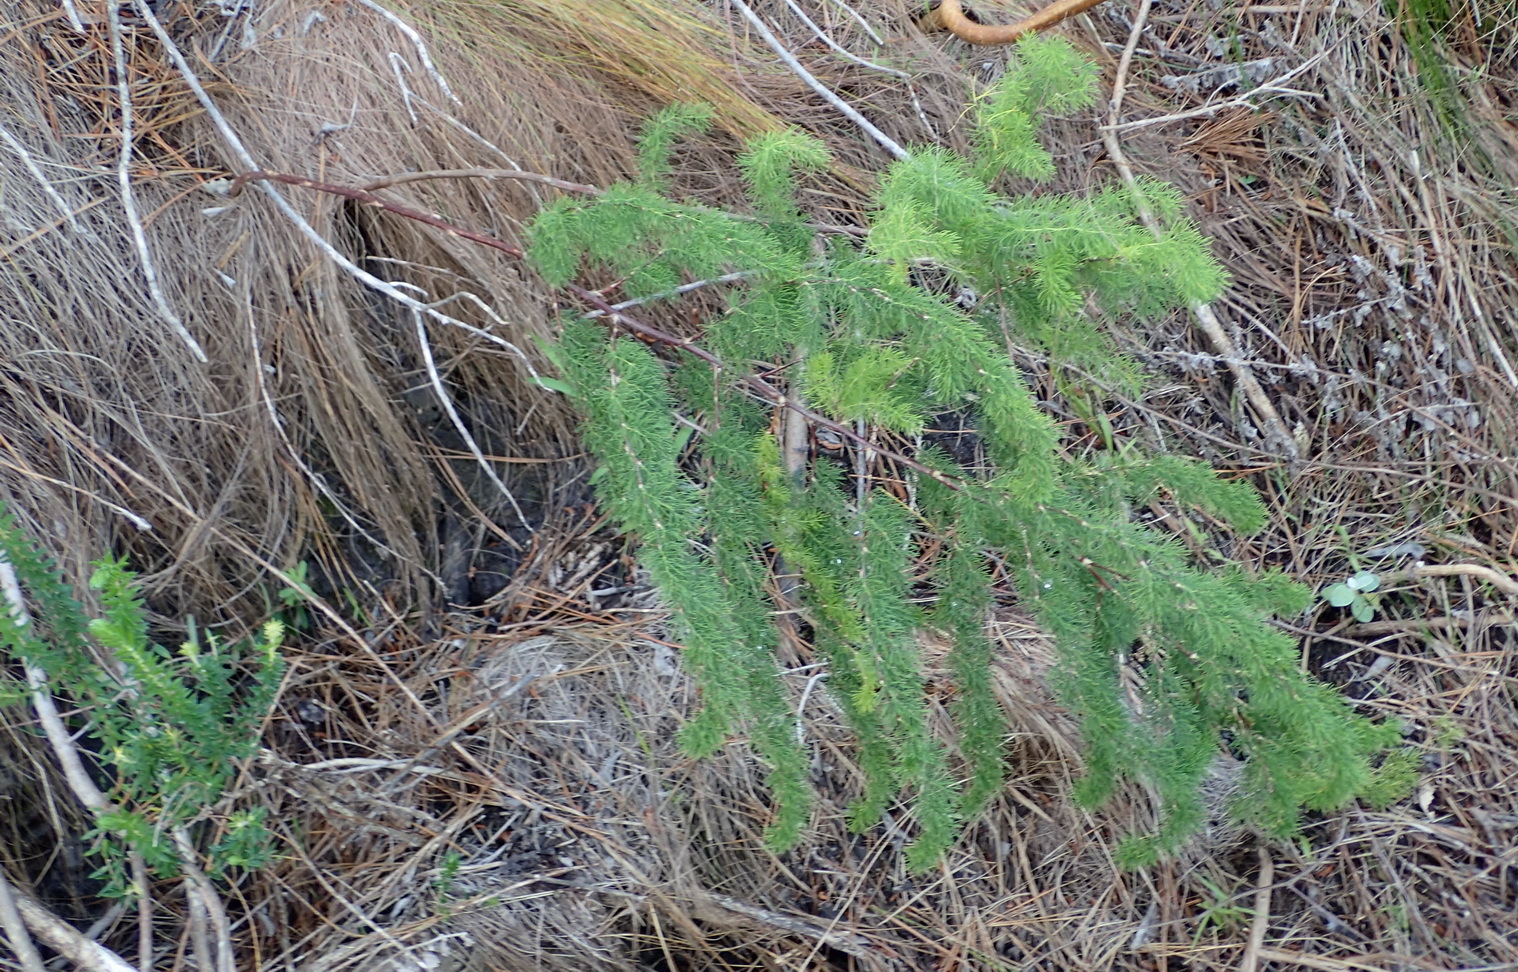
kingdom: Plantae
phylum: Tracheophyta
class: Liliopsida
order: Asparagales
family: Asparagaceae
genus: Asparagus
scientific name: Asparagus rubicundus
